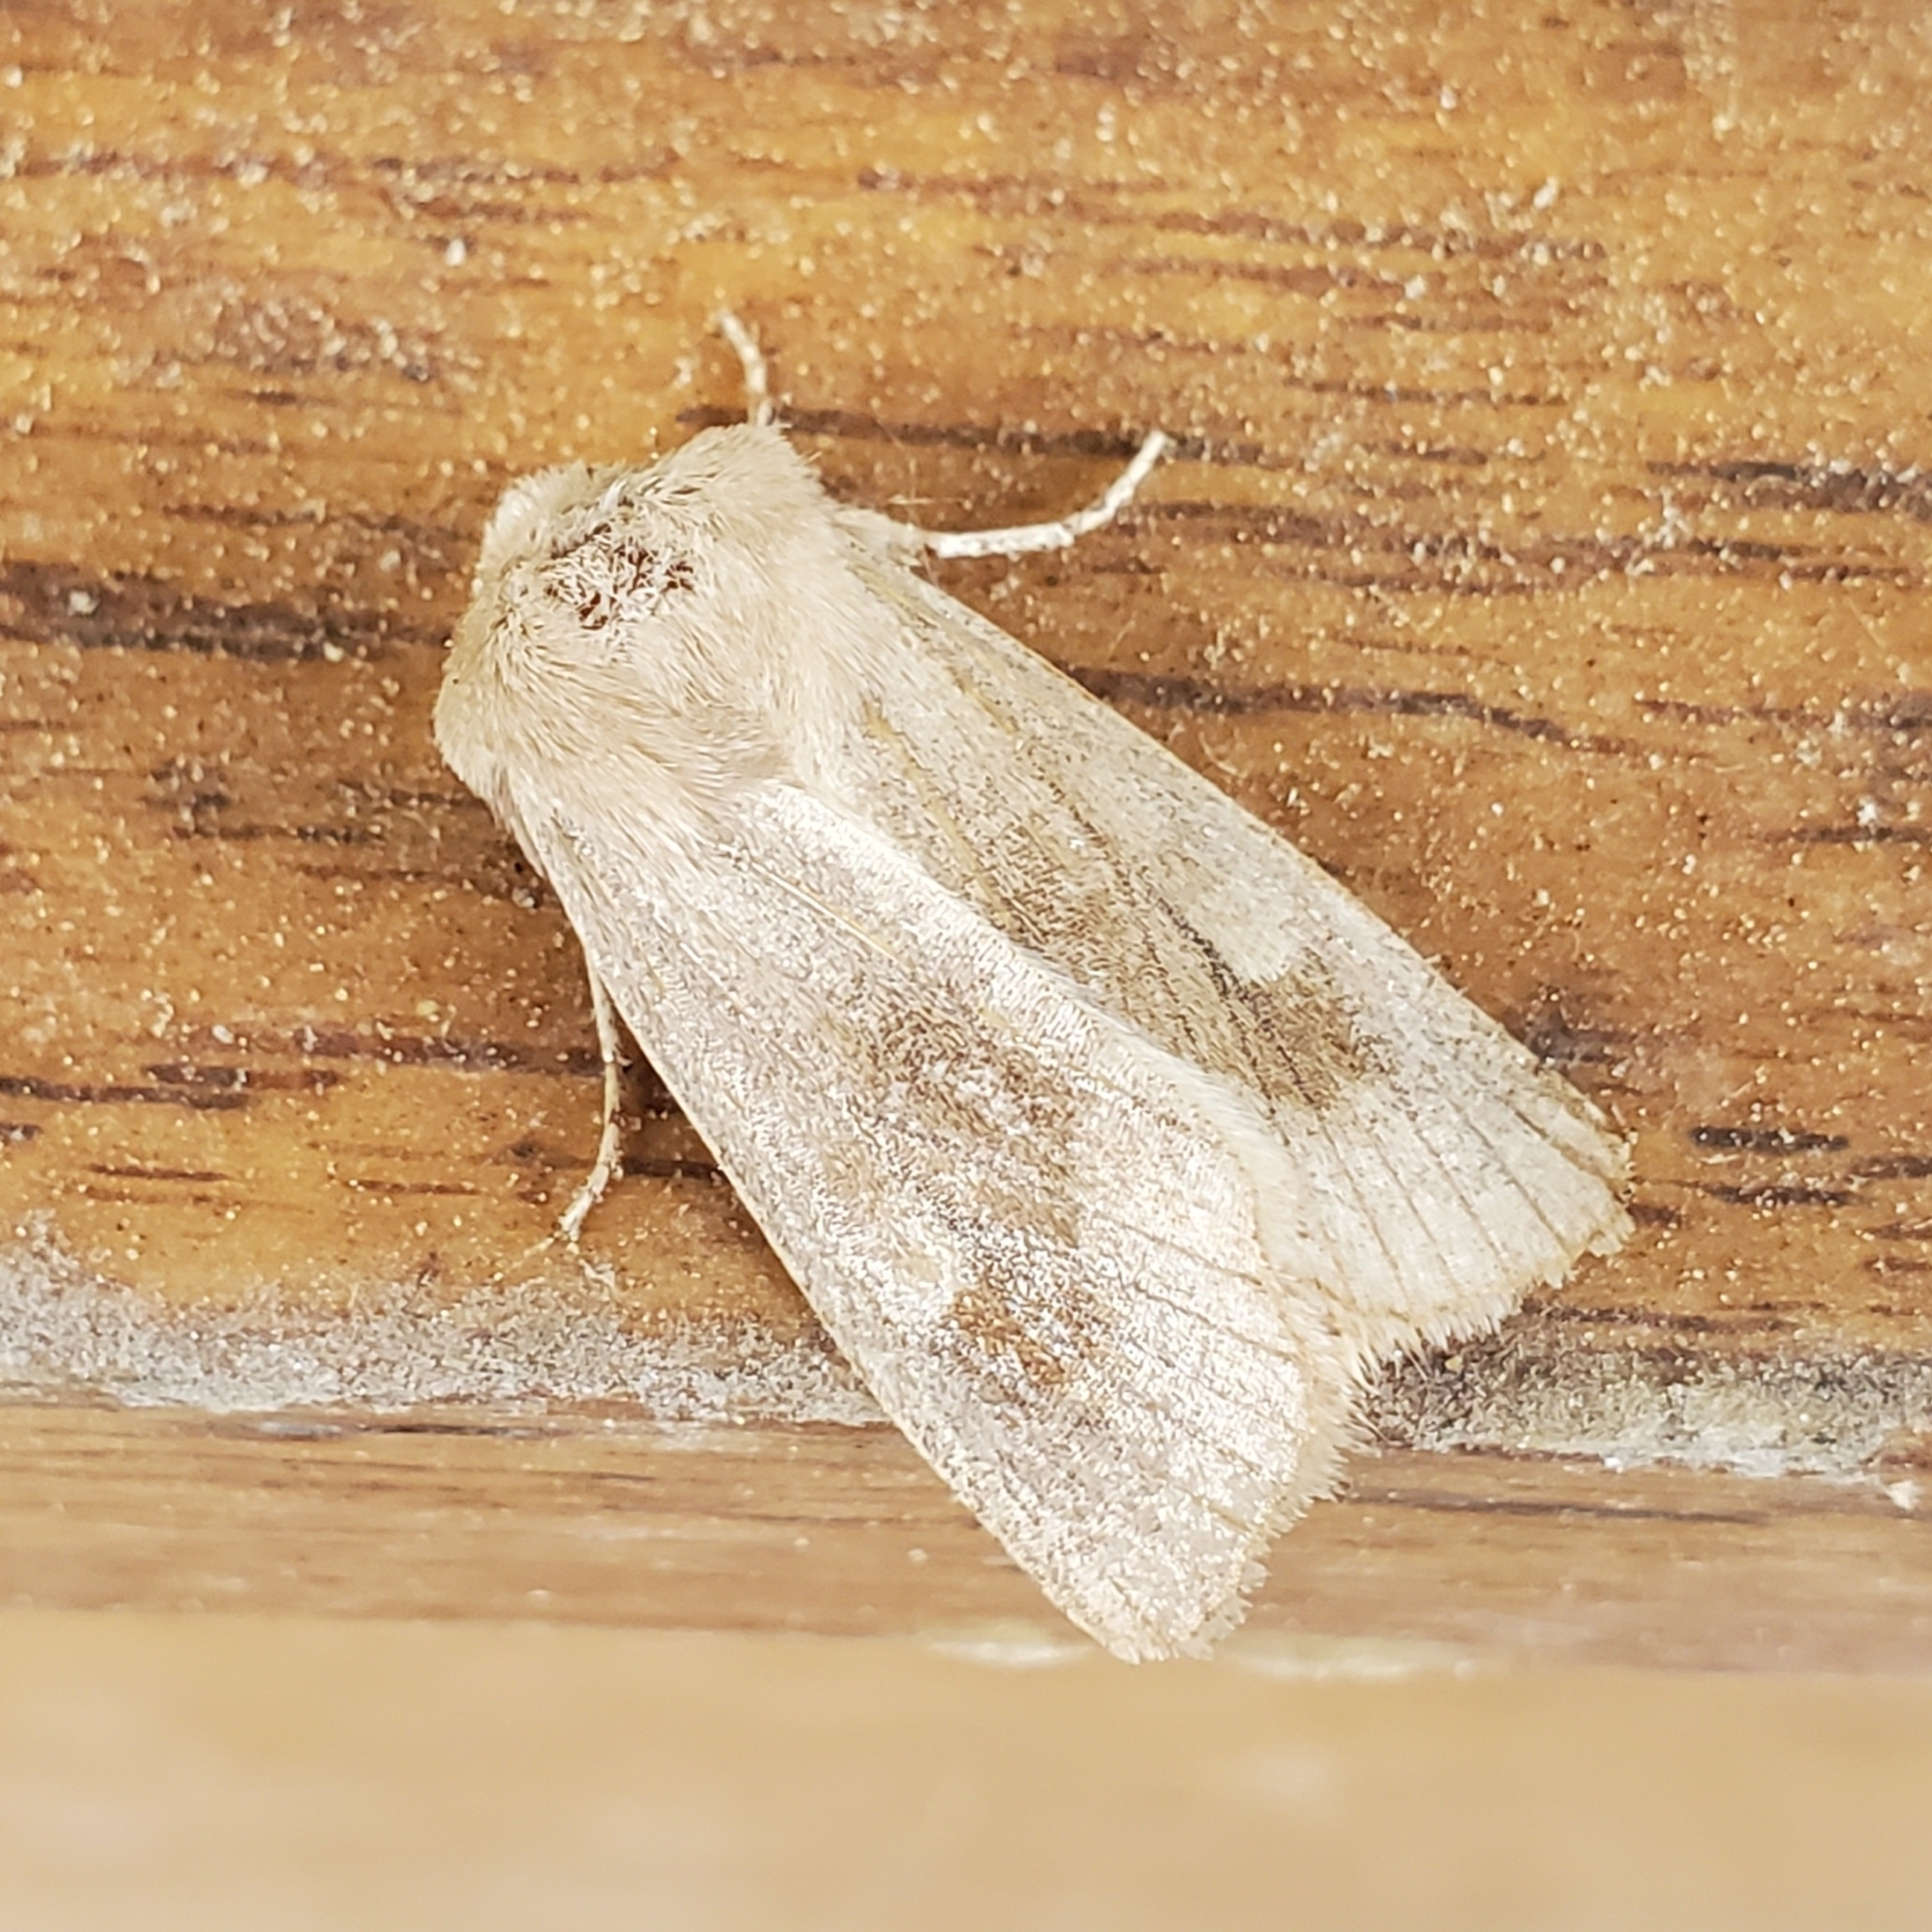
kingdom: Animalia
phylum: Arthropoda
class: Insecta
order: Lepidoptera
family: Noctuidae
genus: Nephelodes
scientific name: Nephelodes minians
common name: Bronzed cutworm
